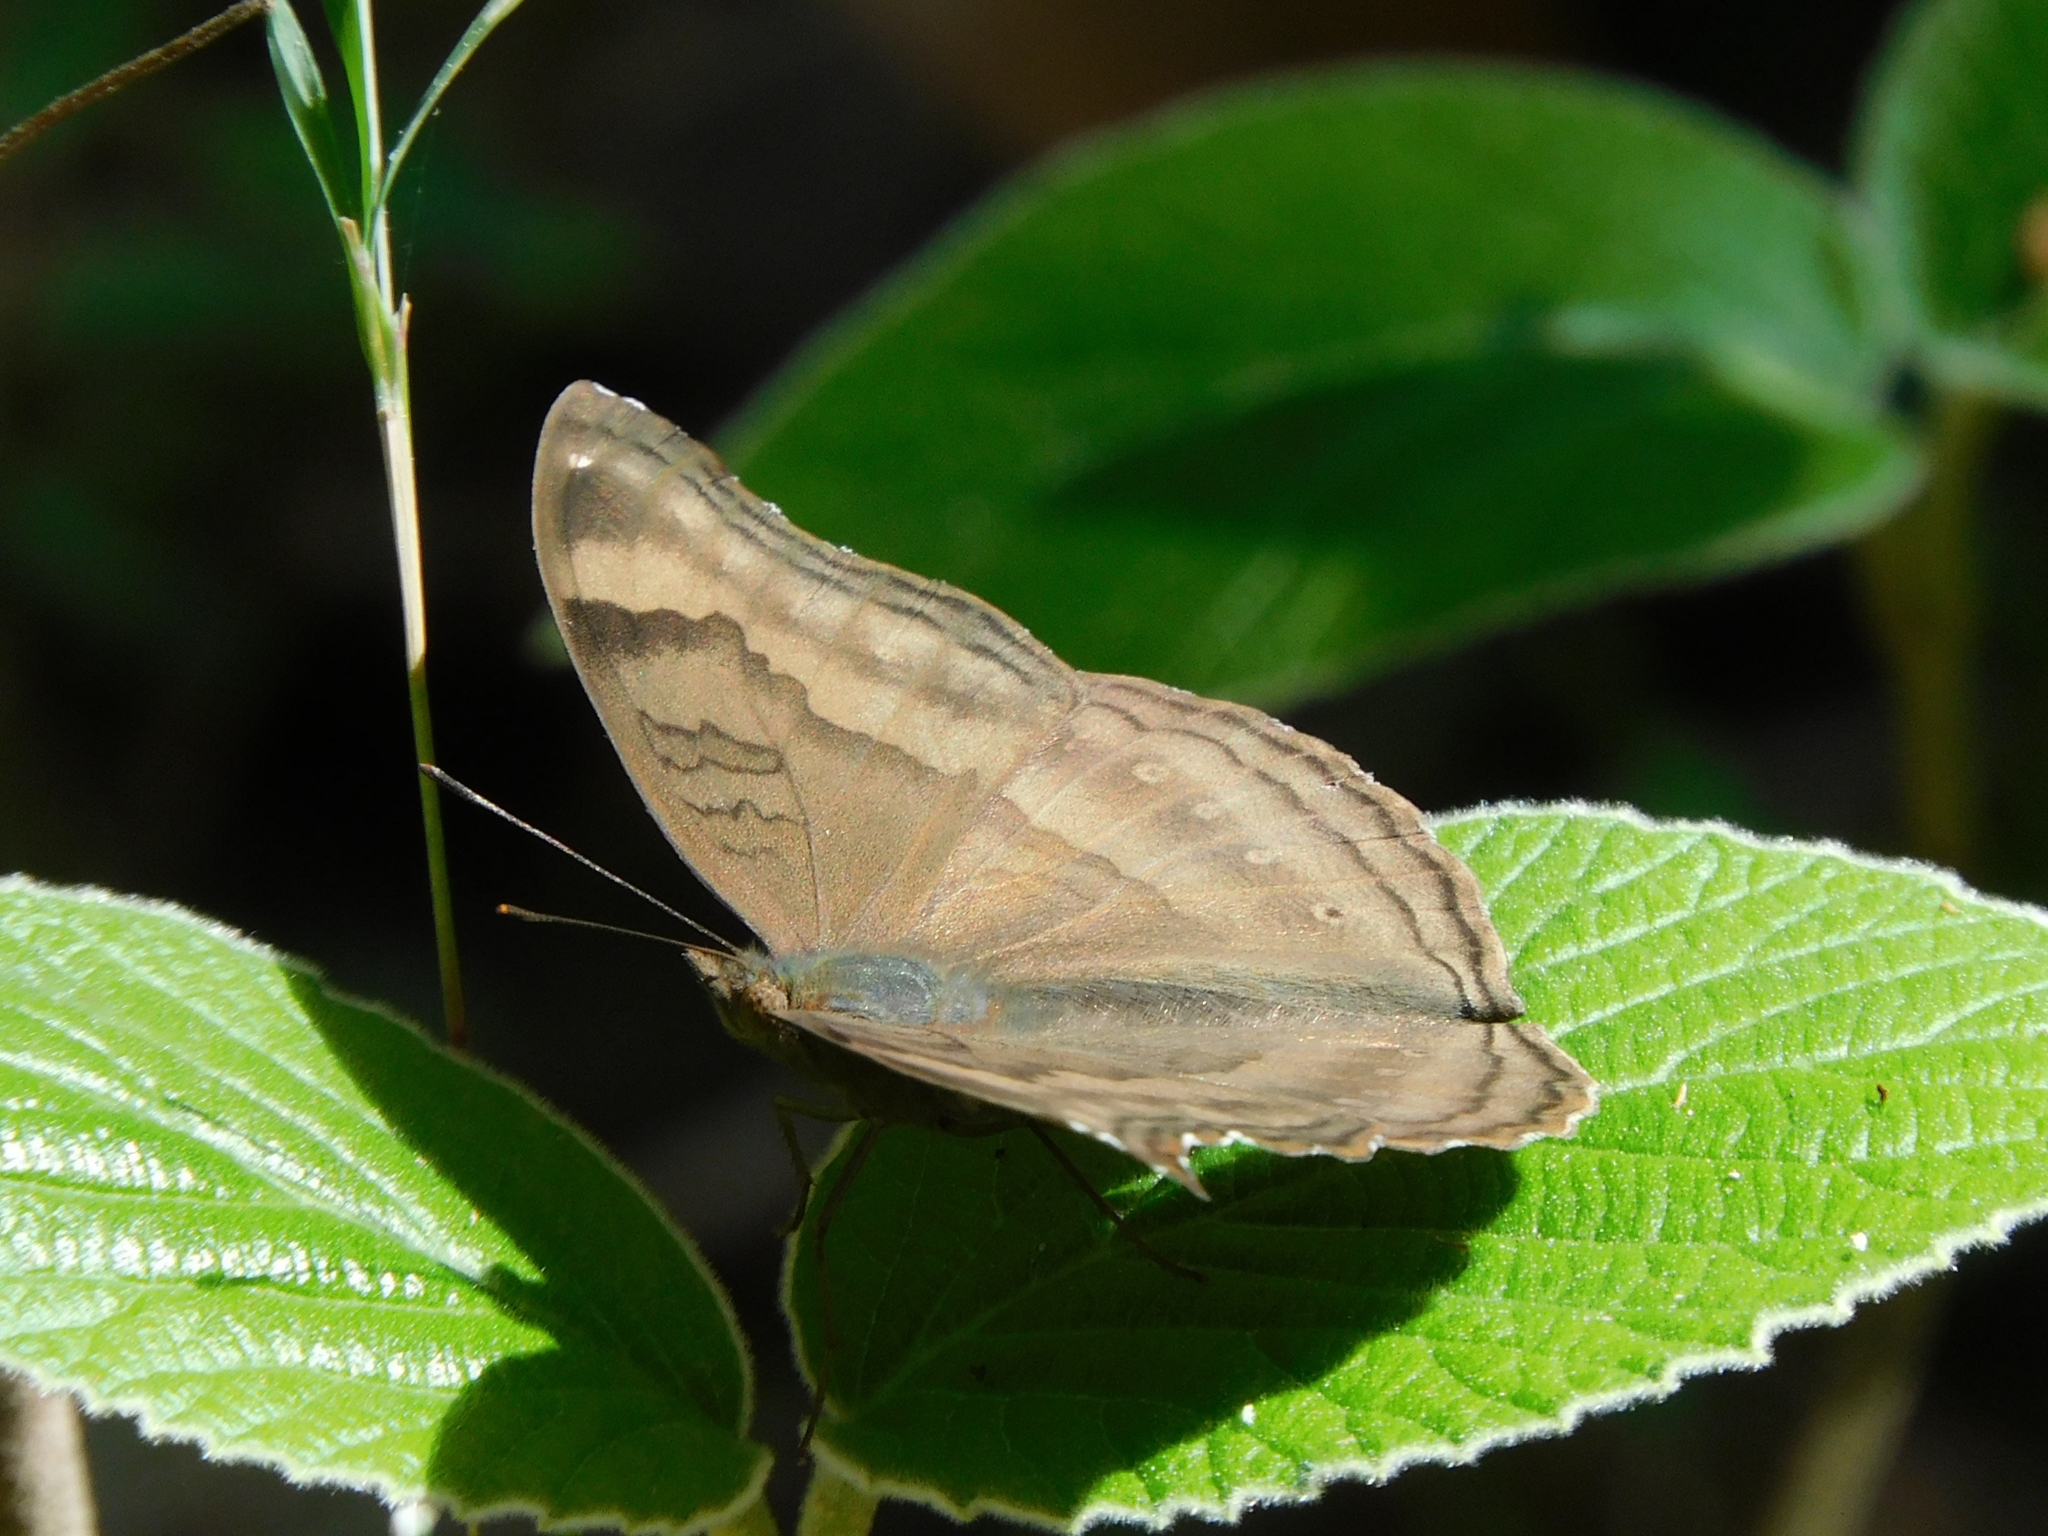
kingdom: Animalia
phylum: Arthropoda
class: Insecta
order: Lepidoptera
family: Nymphalidae
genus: Junonia
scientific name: Junonia iphita
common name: Chocolate pansy
